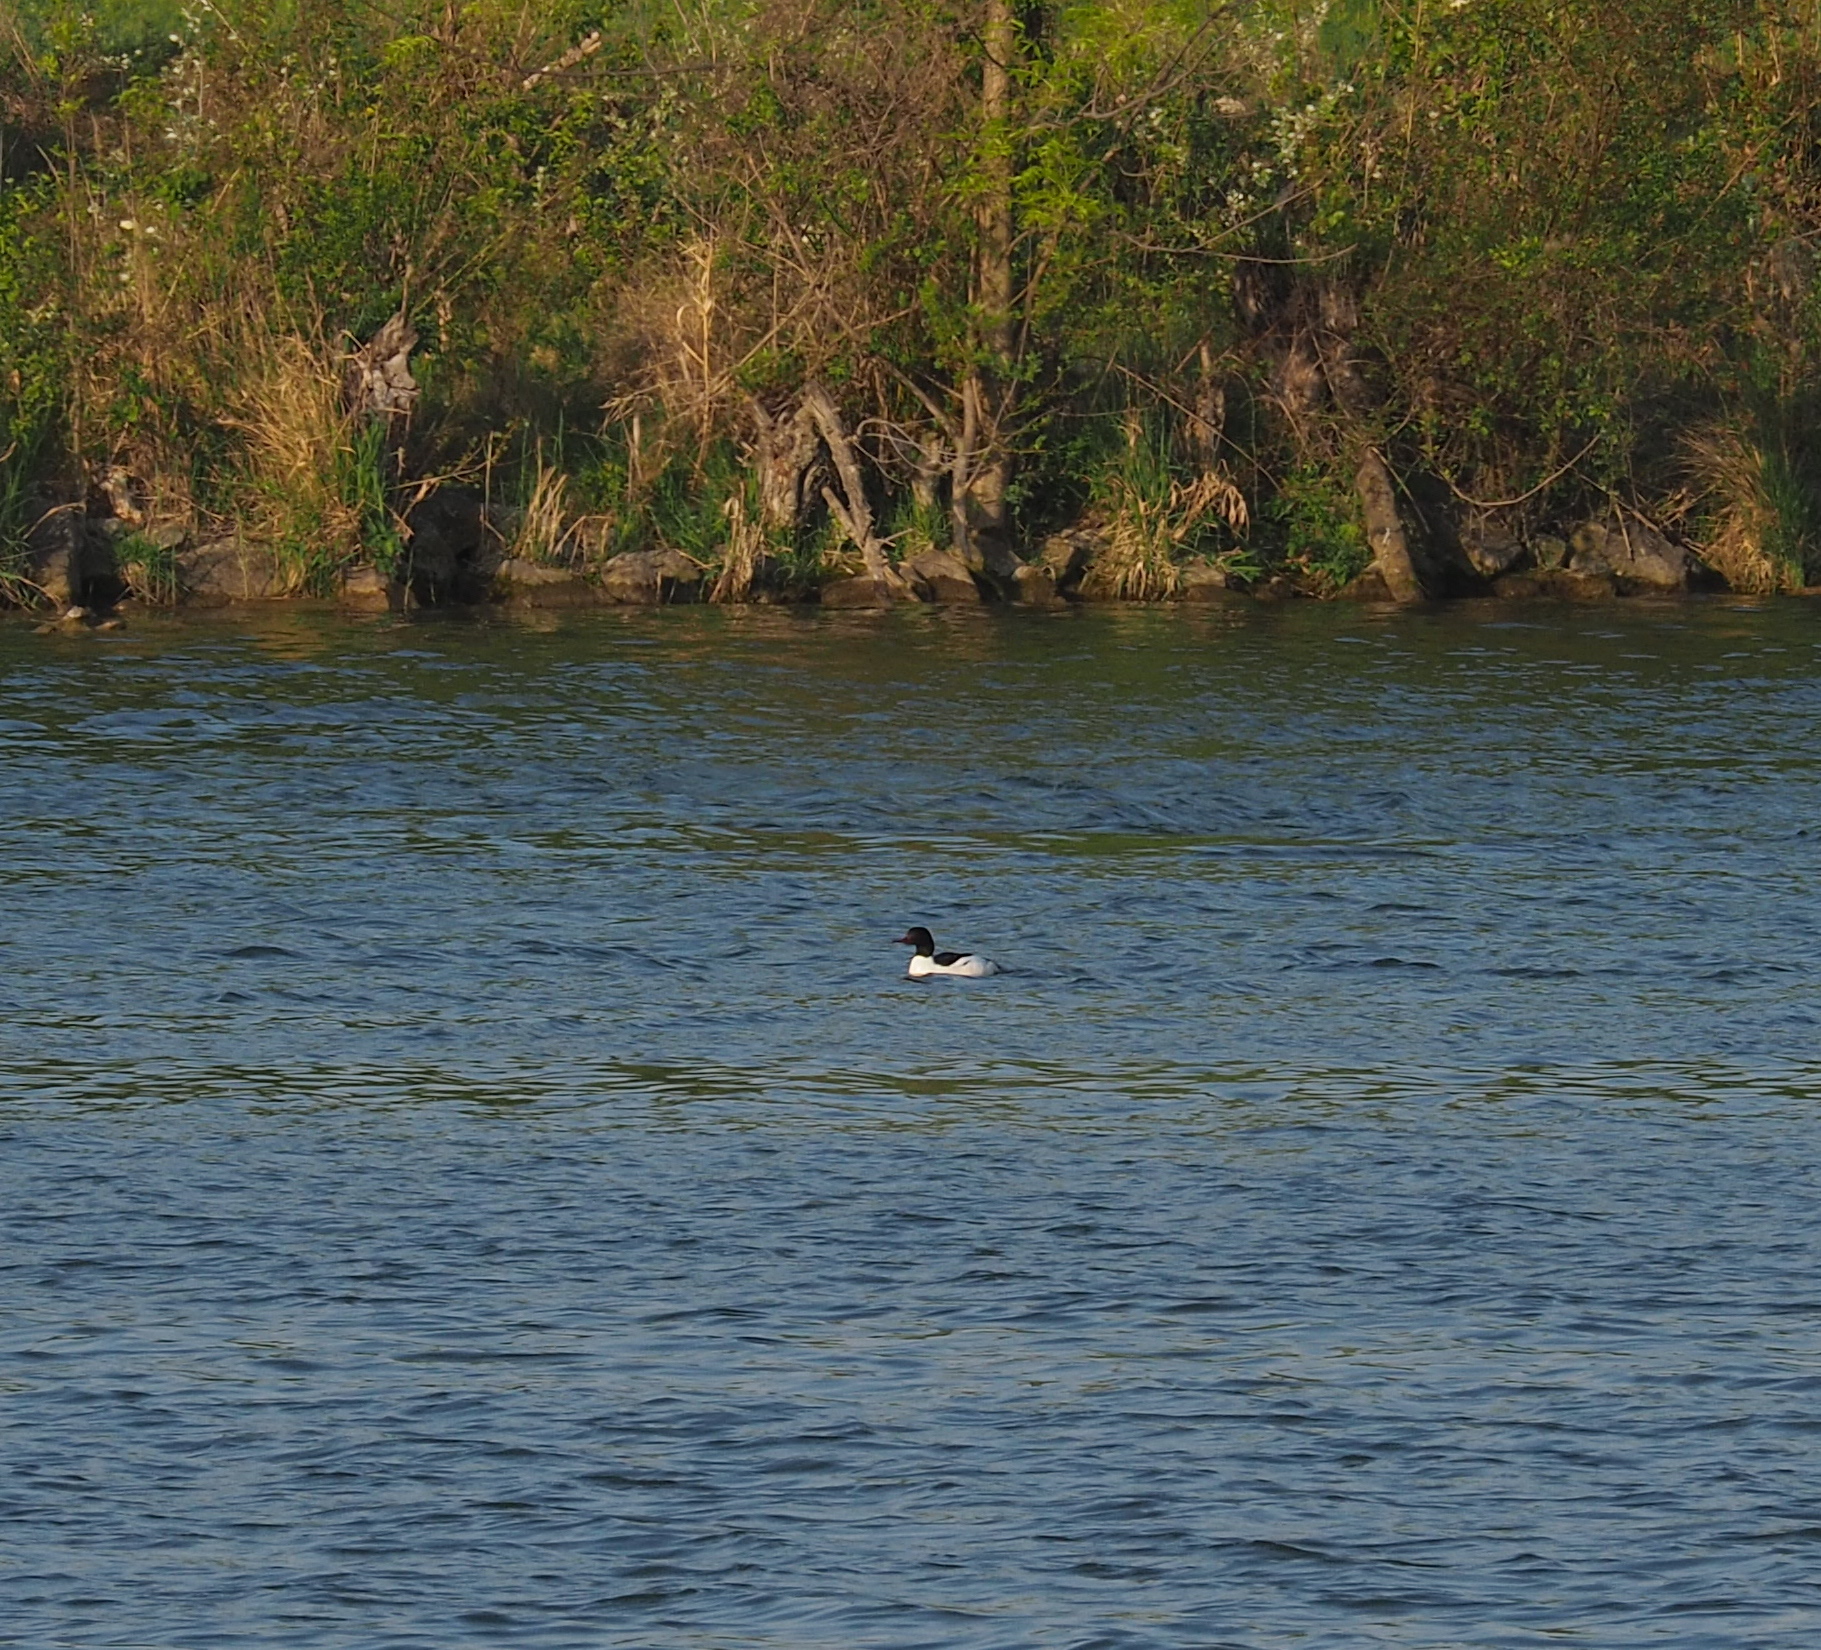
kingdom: Animalia
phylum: Chordata
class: Aves
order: Anseriformes
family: Anatidae
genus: Mergus
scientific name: Mergus merganser
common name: Common merganser
